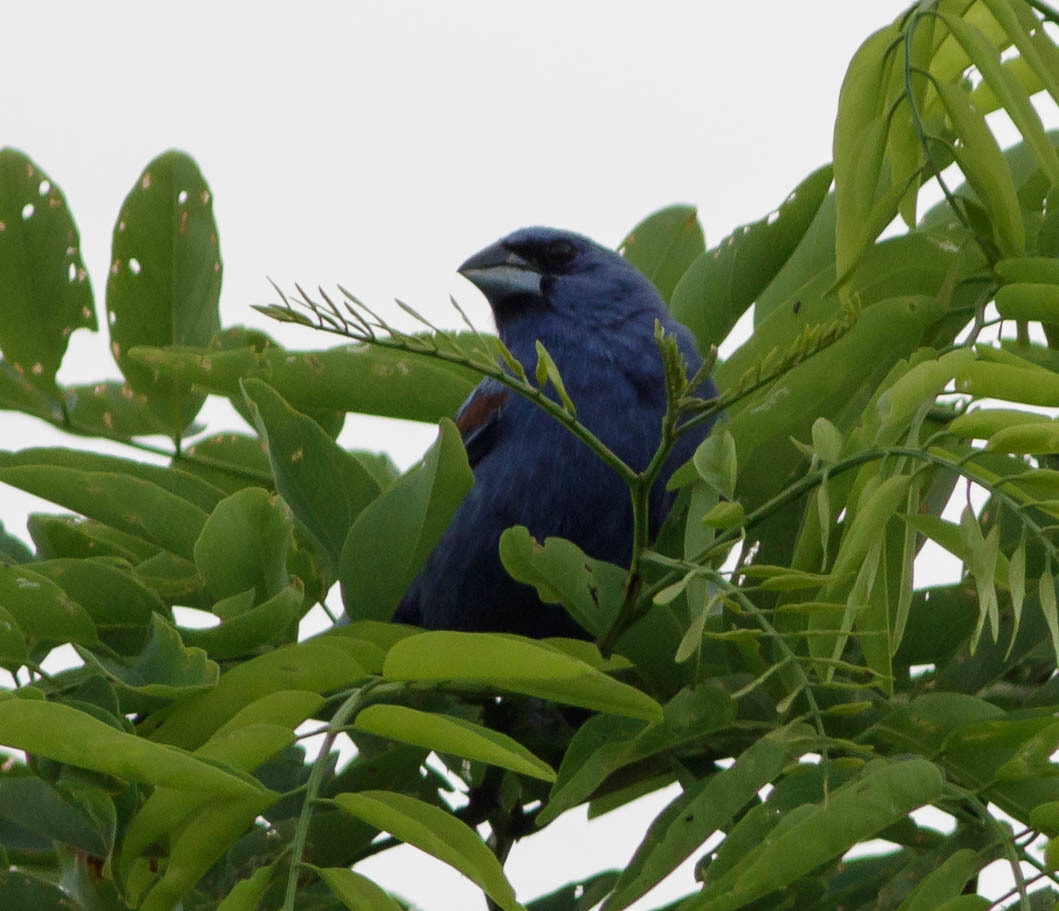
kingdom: Animalia
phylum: Chordata
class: Aves
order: Passeriformes
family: Cardinalidae
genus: Passerina
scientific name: Passerina caerulea
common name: Blue grosbeak
